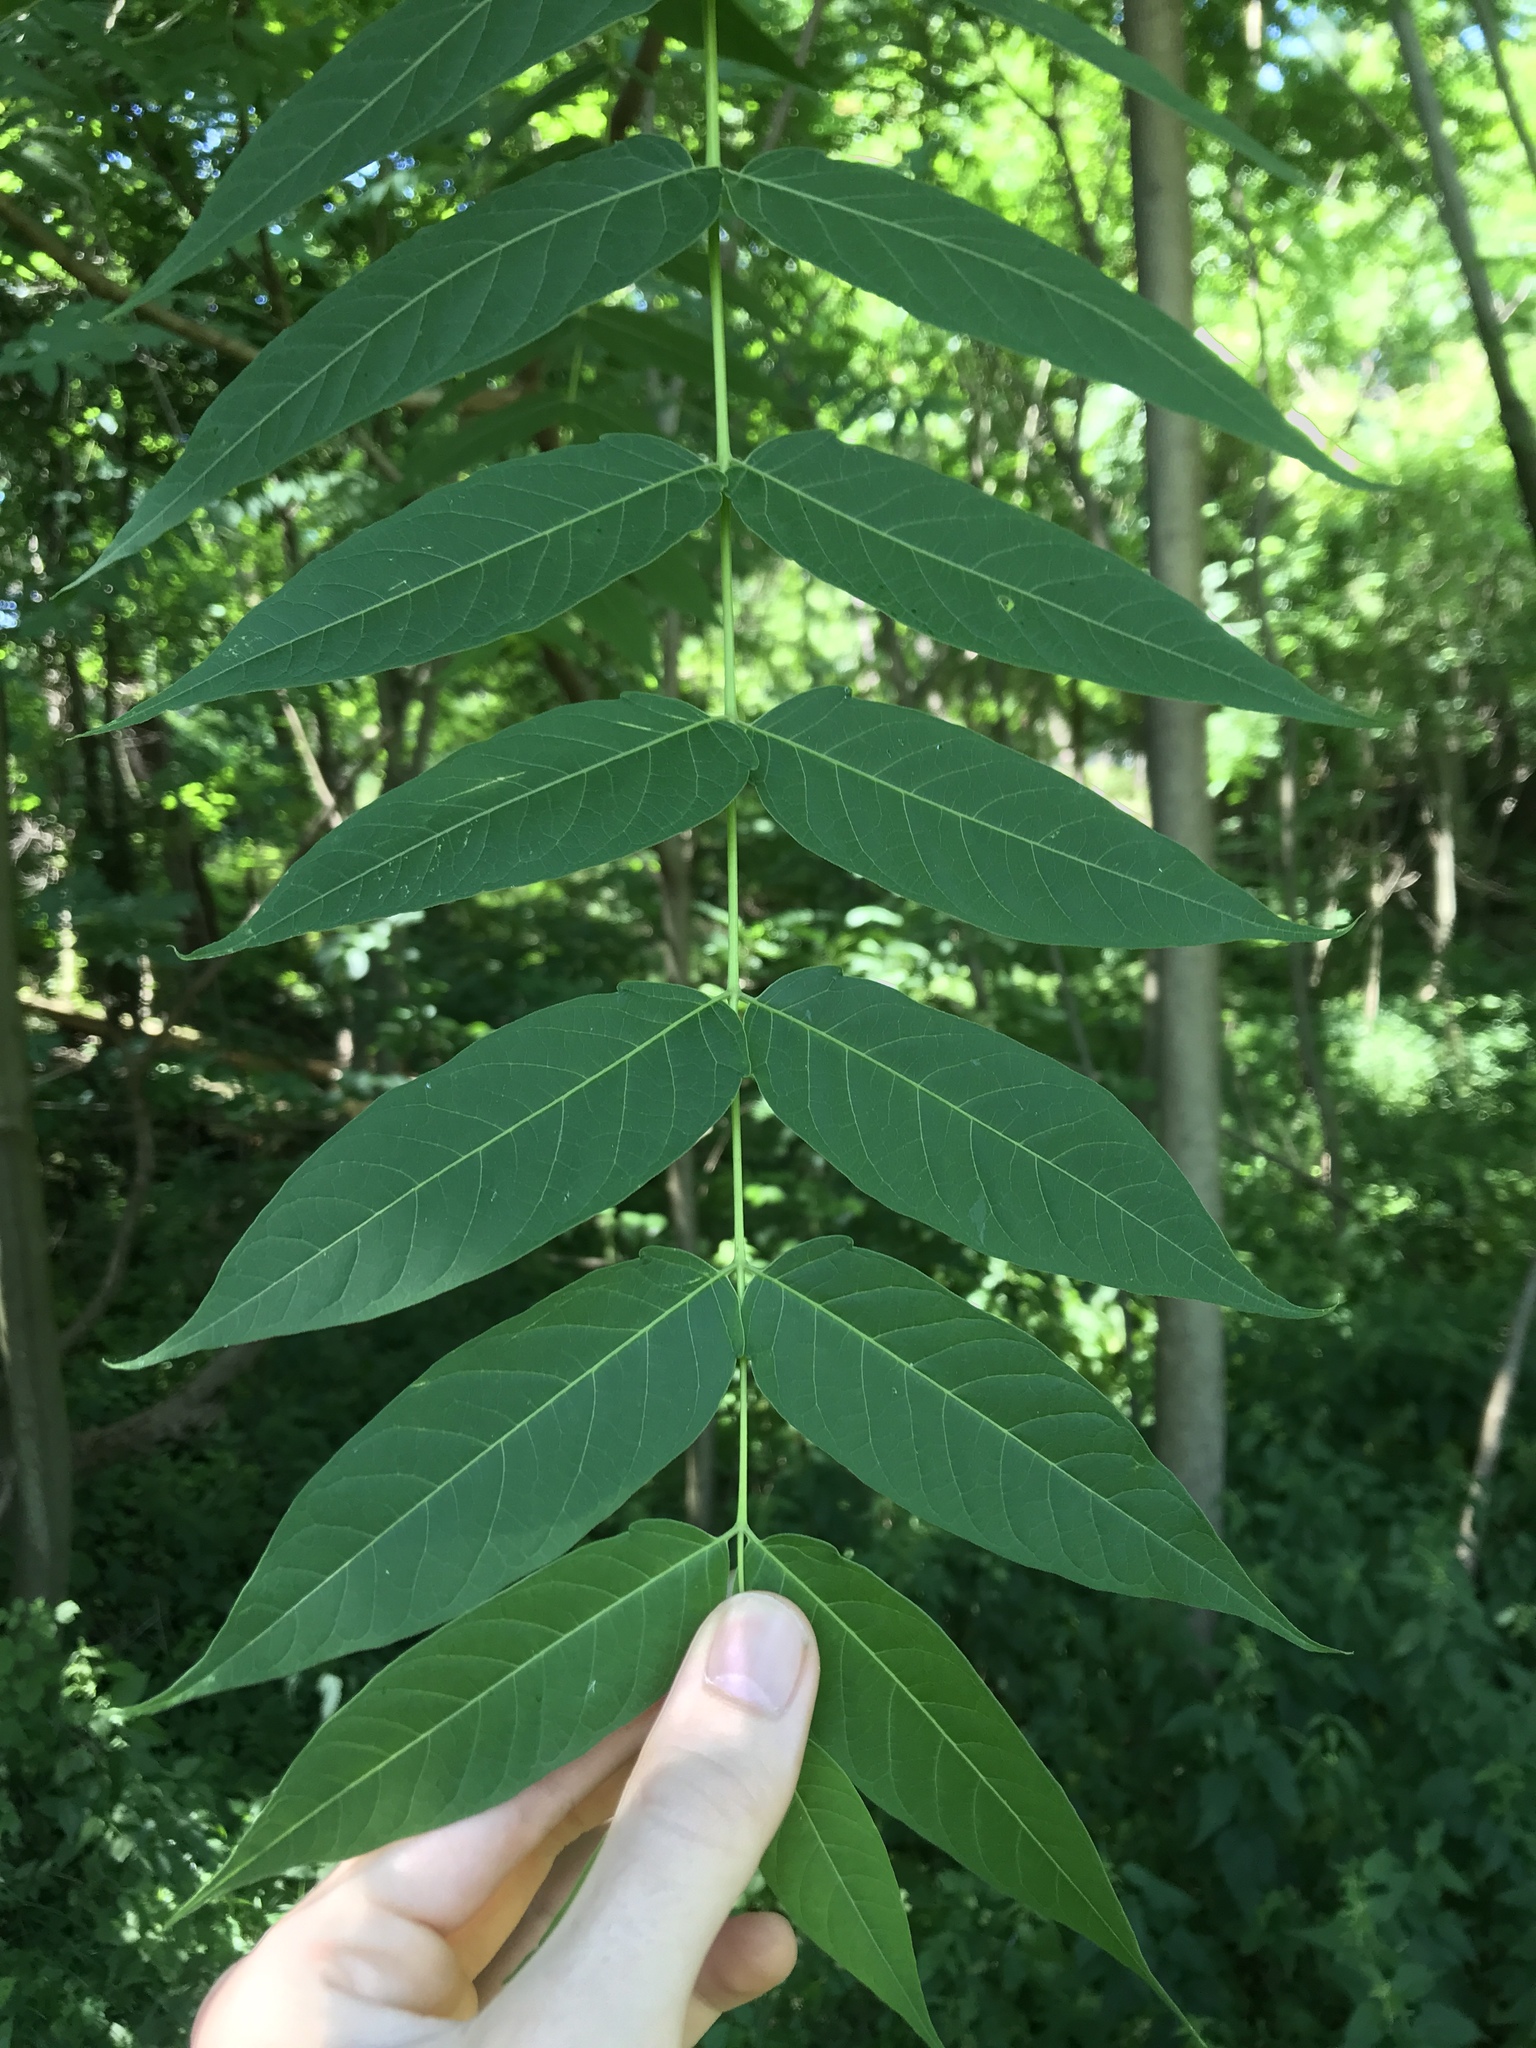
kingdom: Plantae
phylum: Tracheophyta
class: Magnoliopsida
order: Sapindales
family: Simaroubaceae
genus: Ailanthus
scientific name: Ailanthus altissima
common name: Tree-of-heaven
